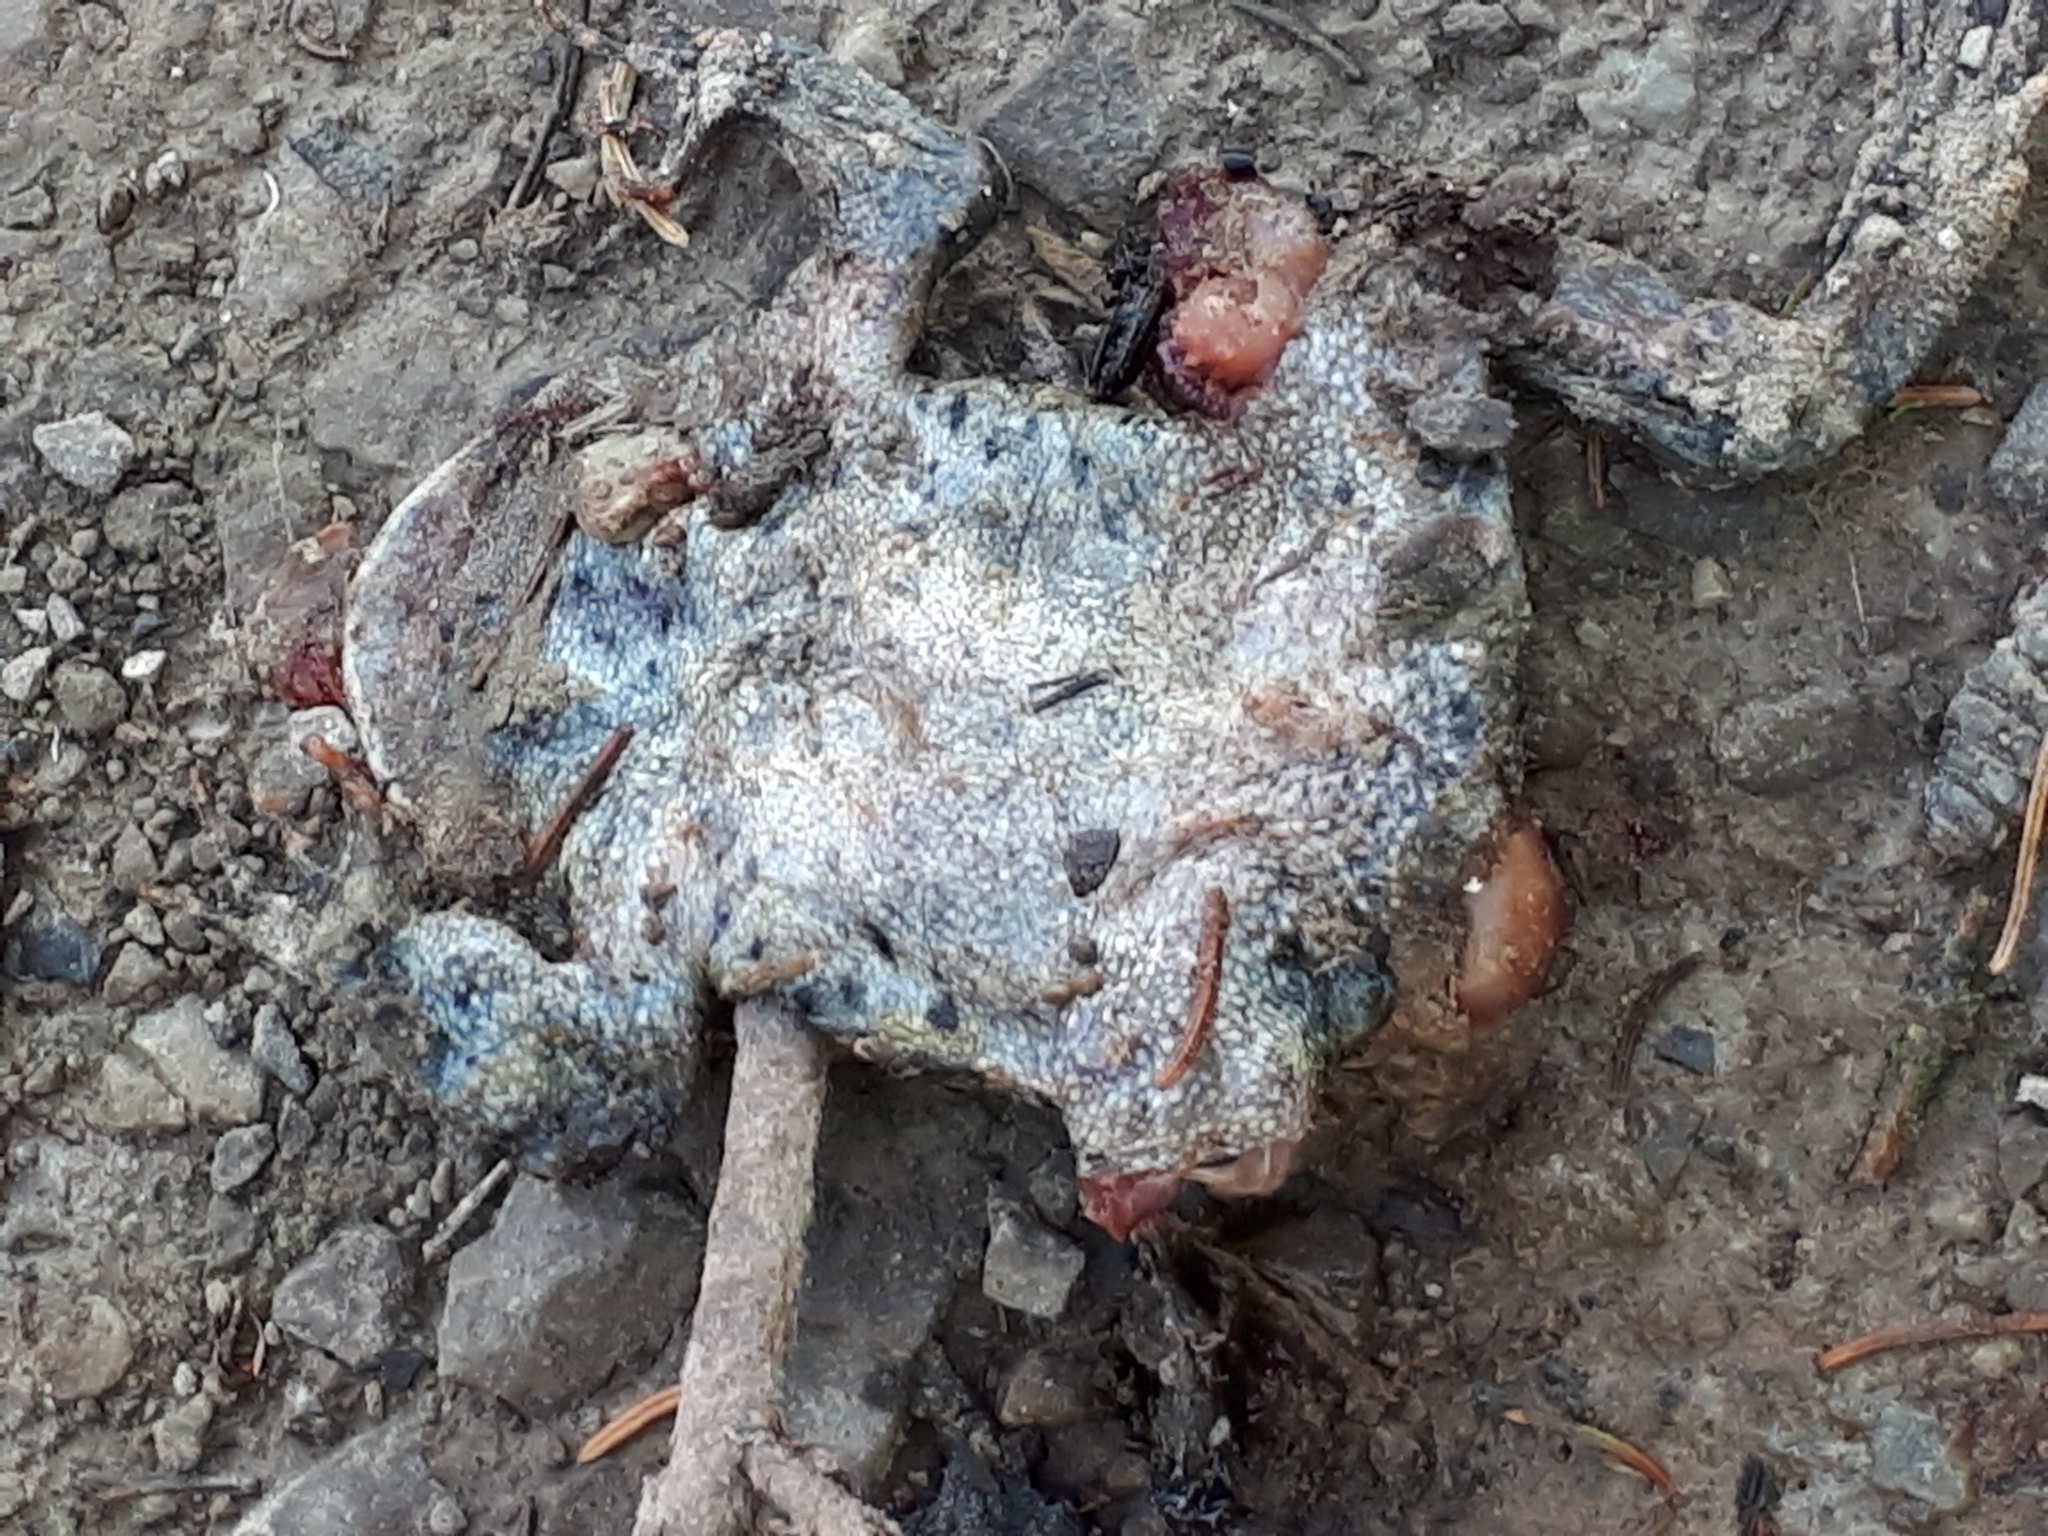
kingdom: Animalia
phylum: Chordata
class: Amphibia
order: Anura
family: Bufonidae
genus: Anaxyrus
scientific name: Anaxyrus americanus
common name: American toad
